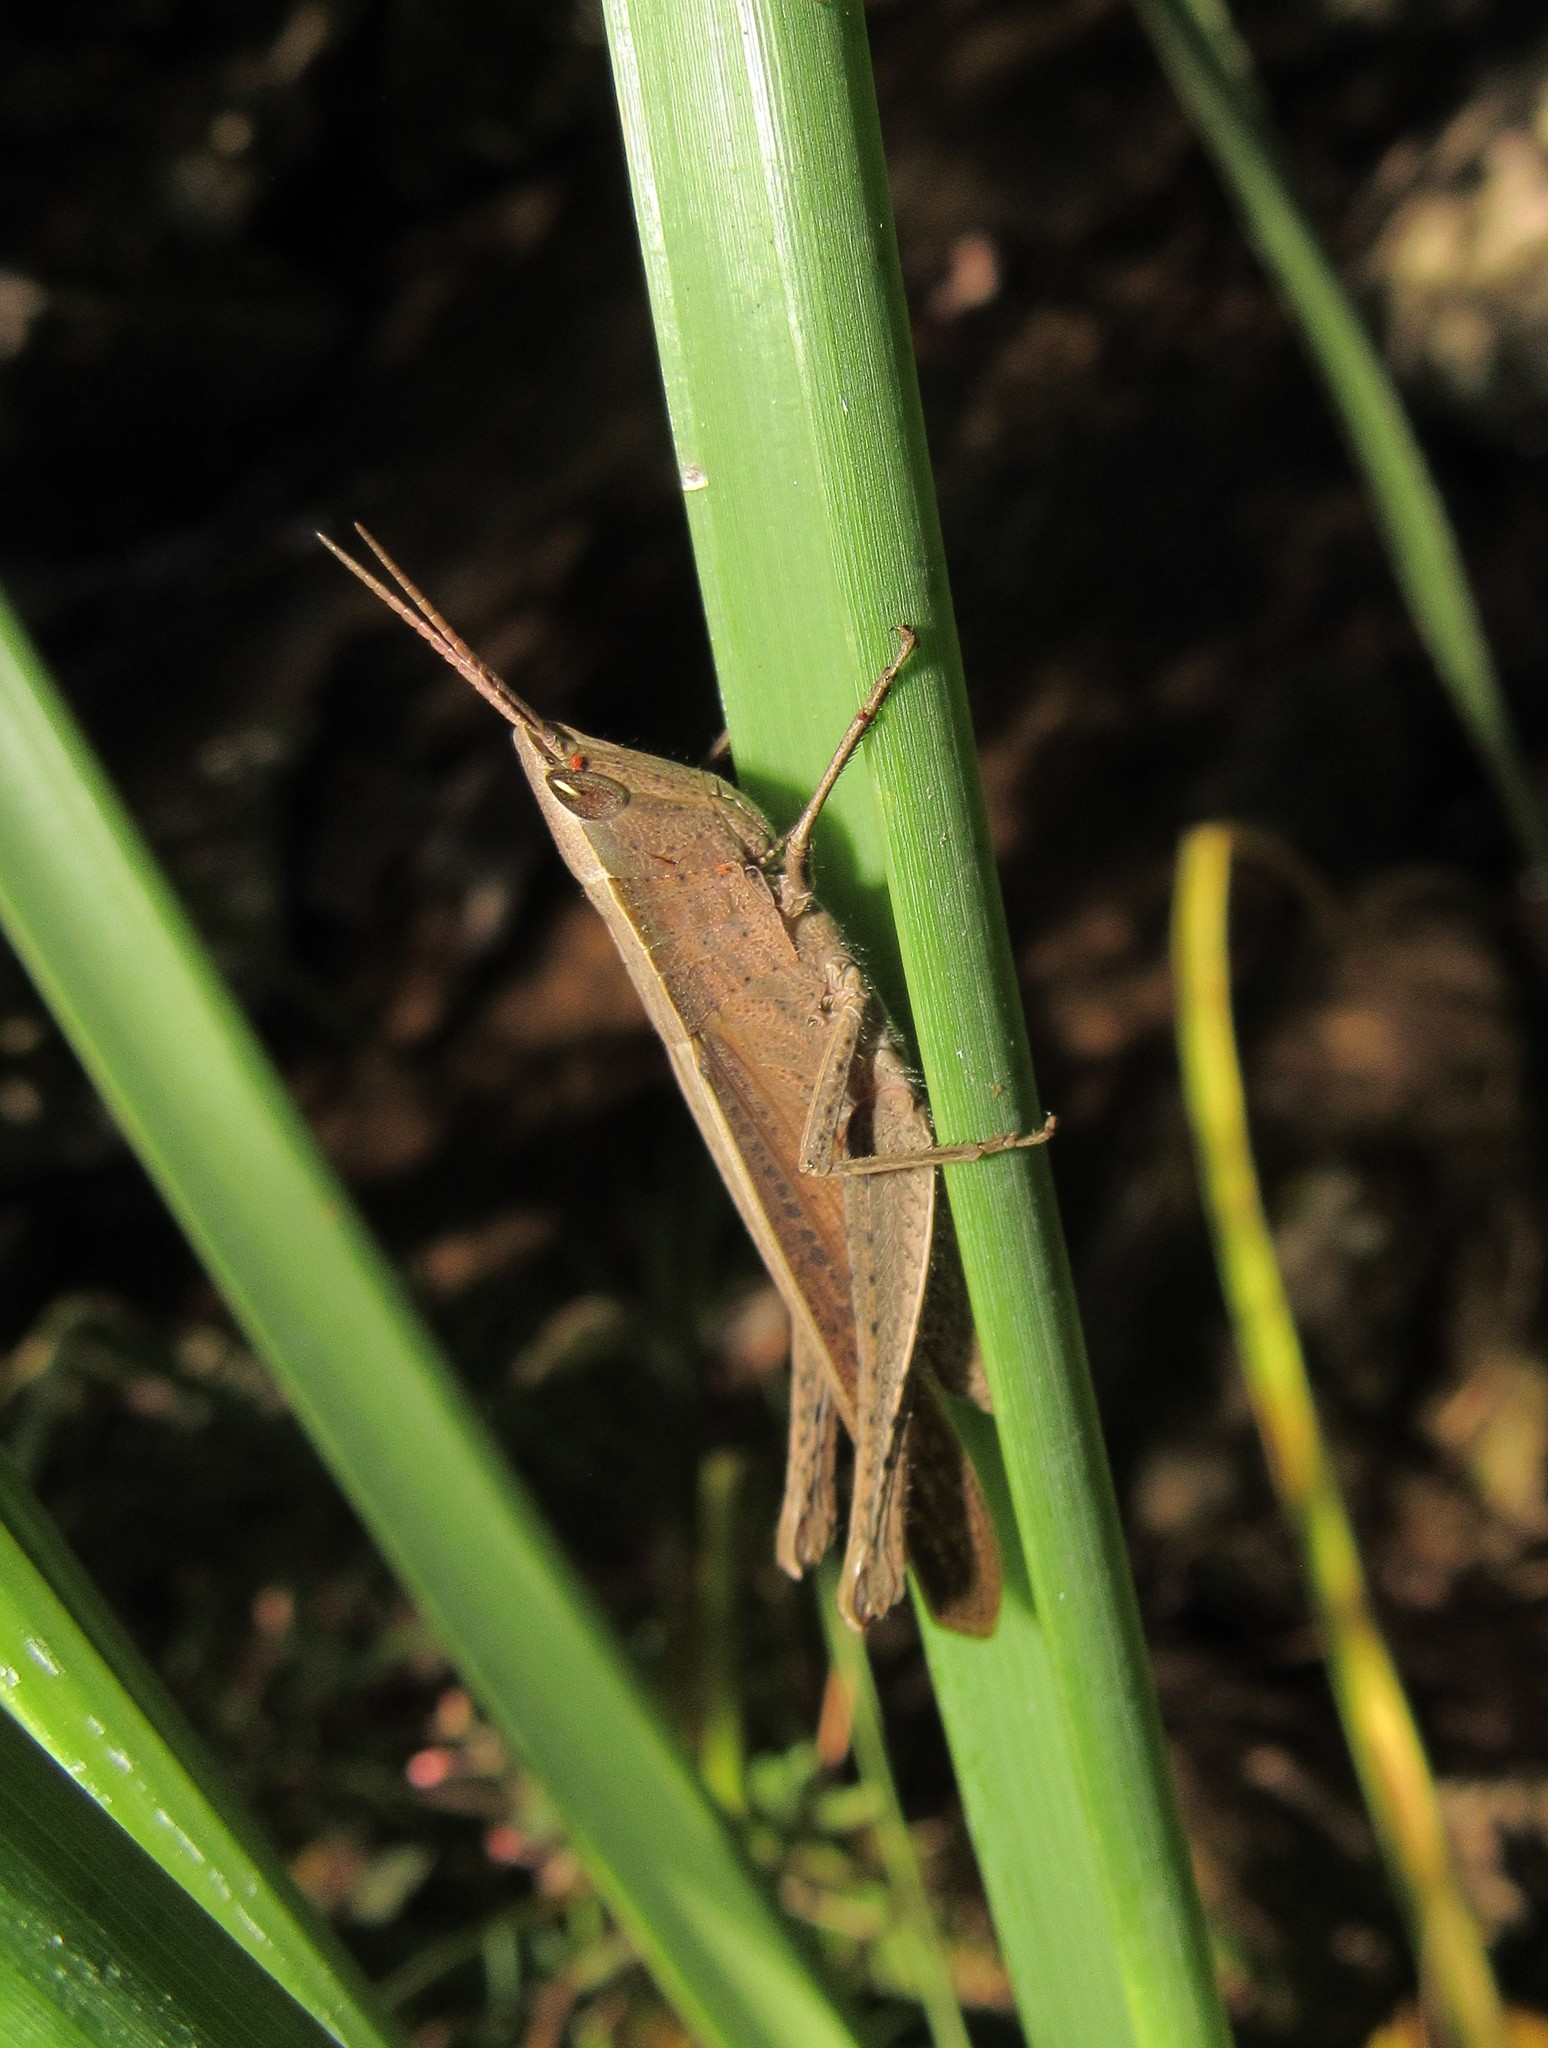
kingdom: Animalia
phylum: Arthropoda
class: Insecta
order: Orthoptera
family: Acrididae
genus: Metaleptea
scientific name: Metaleptea adspersa
